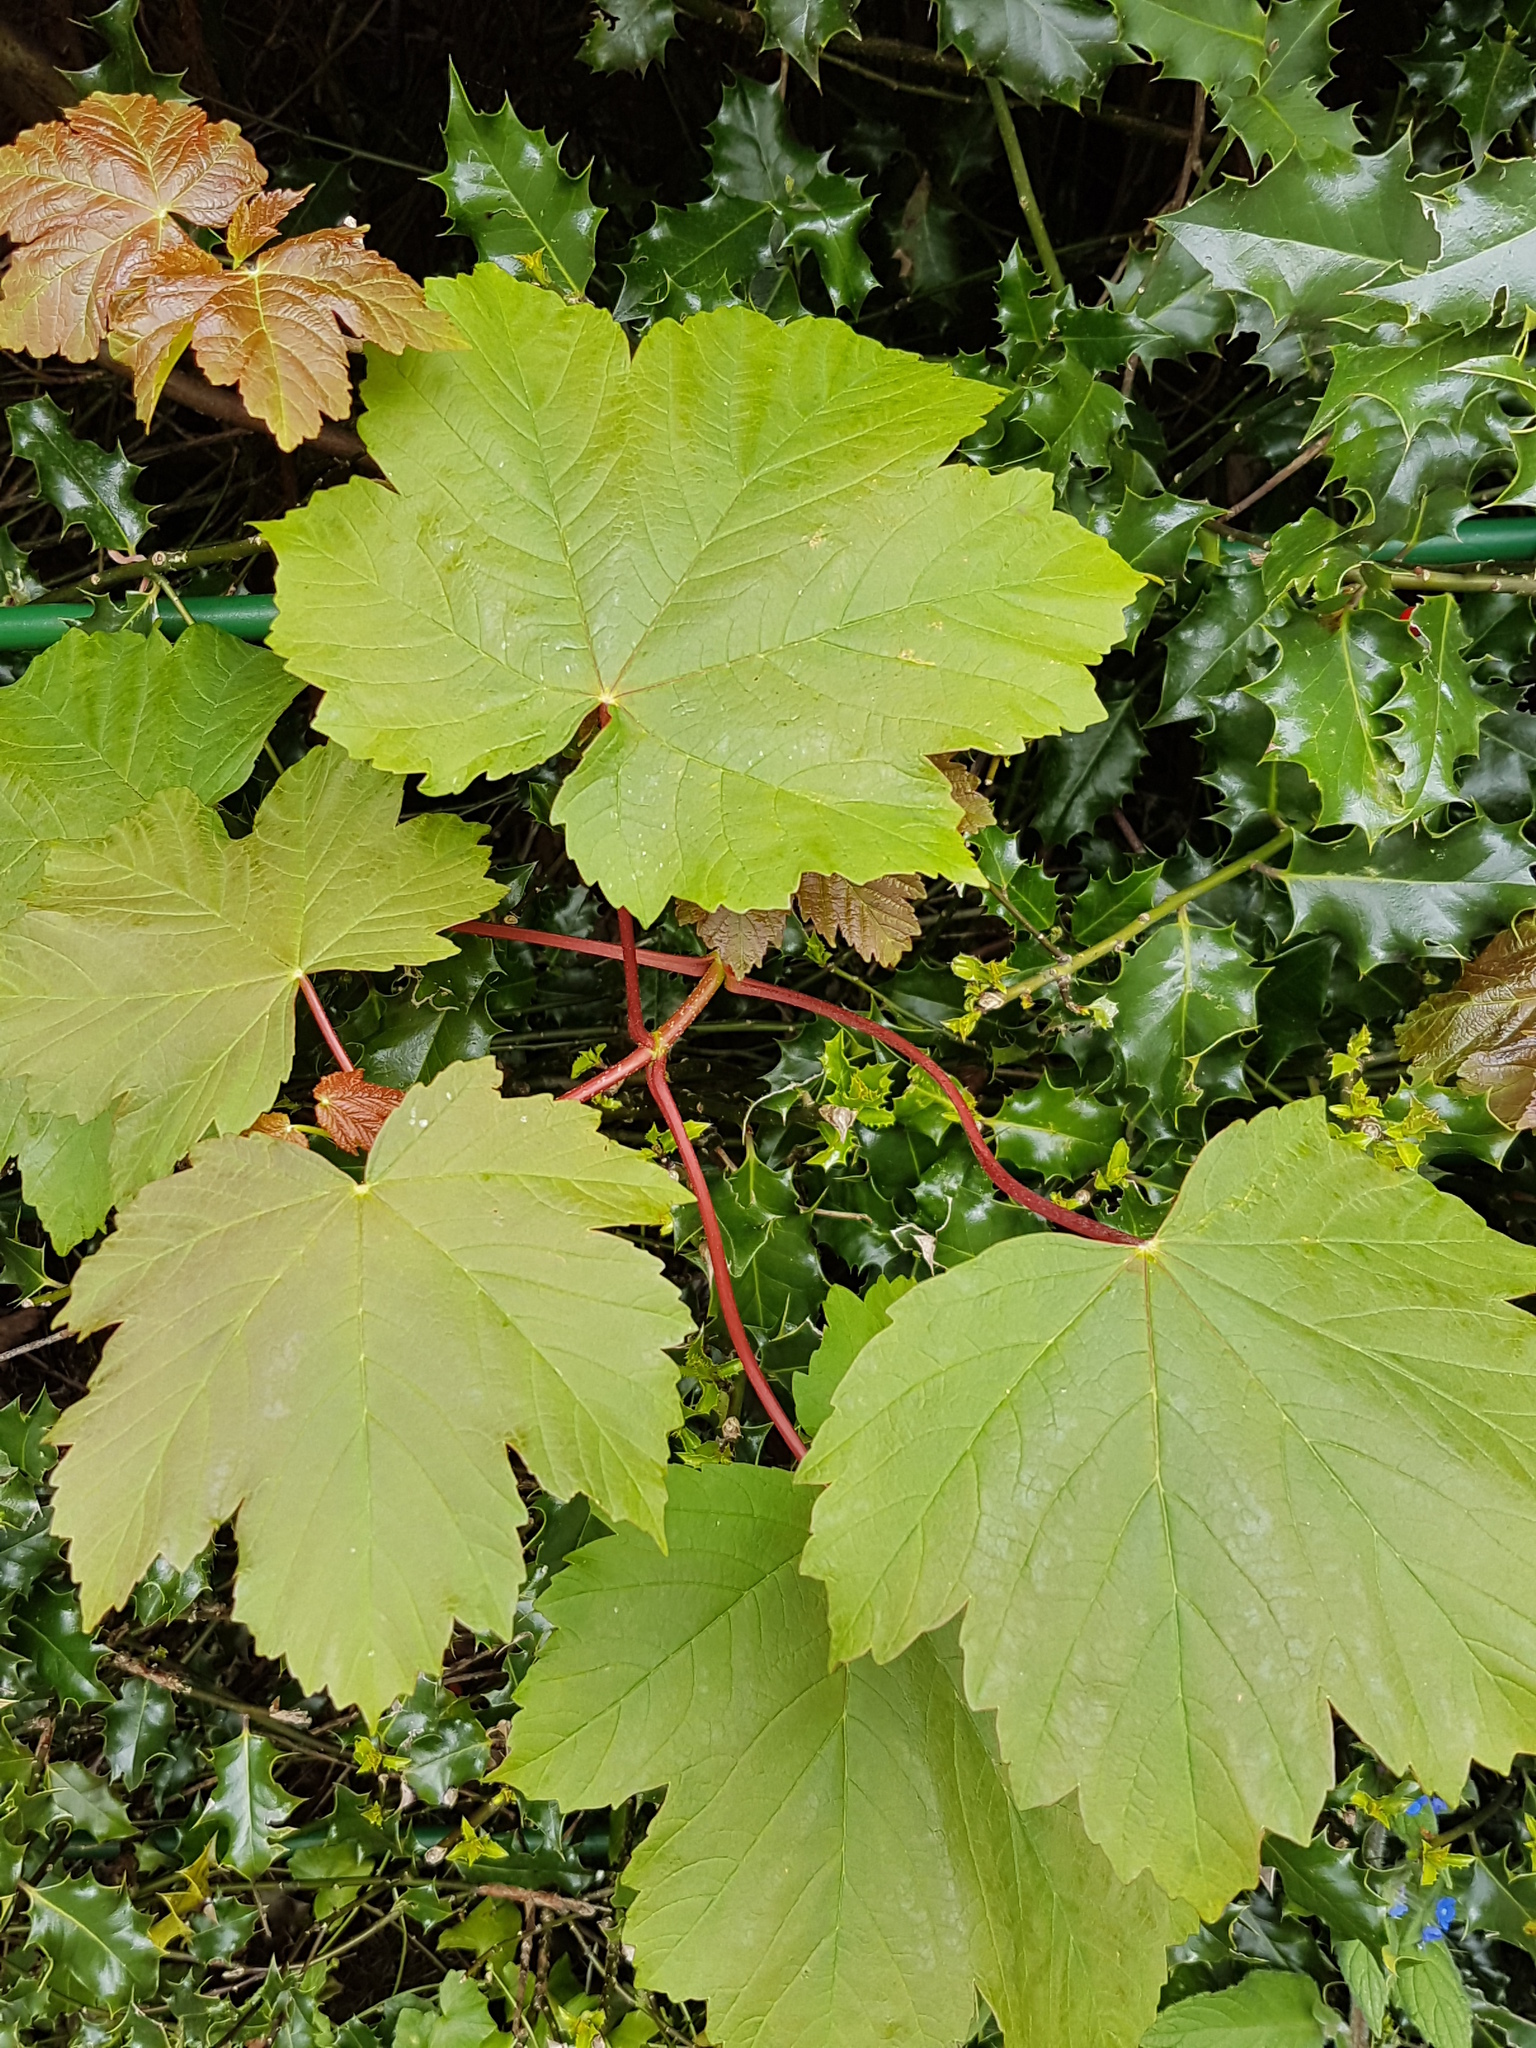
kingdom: Plantae
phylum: Tracheophyta
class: Magnoliopsida
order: Sapindales
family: Sapindaceae
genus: Acer
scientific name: Acer pseudoplatanus
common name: Sycamore
